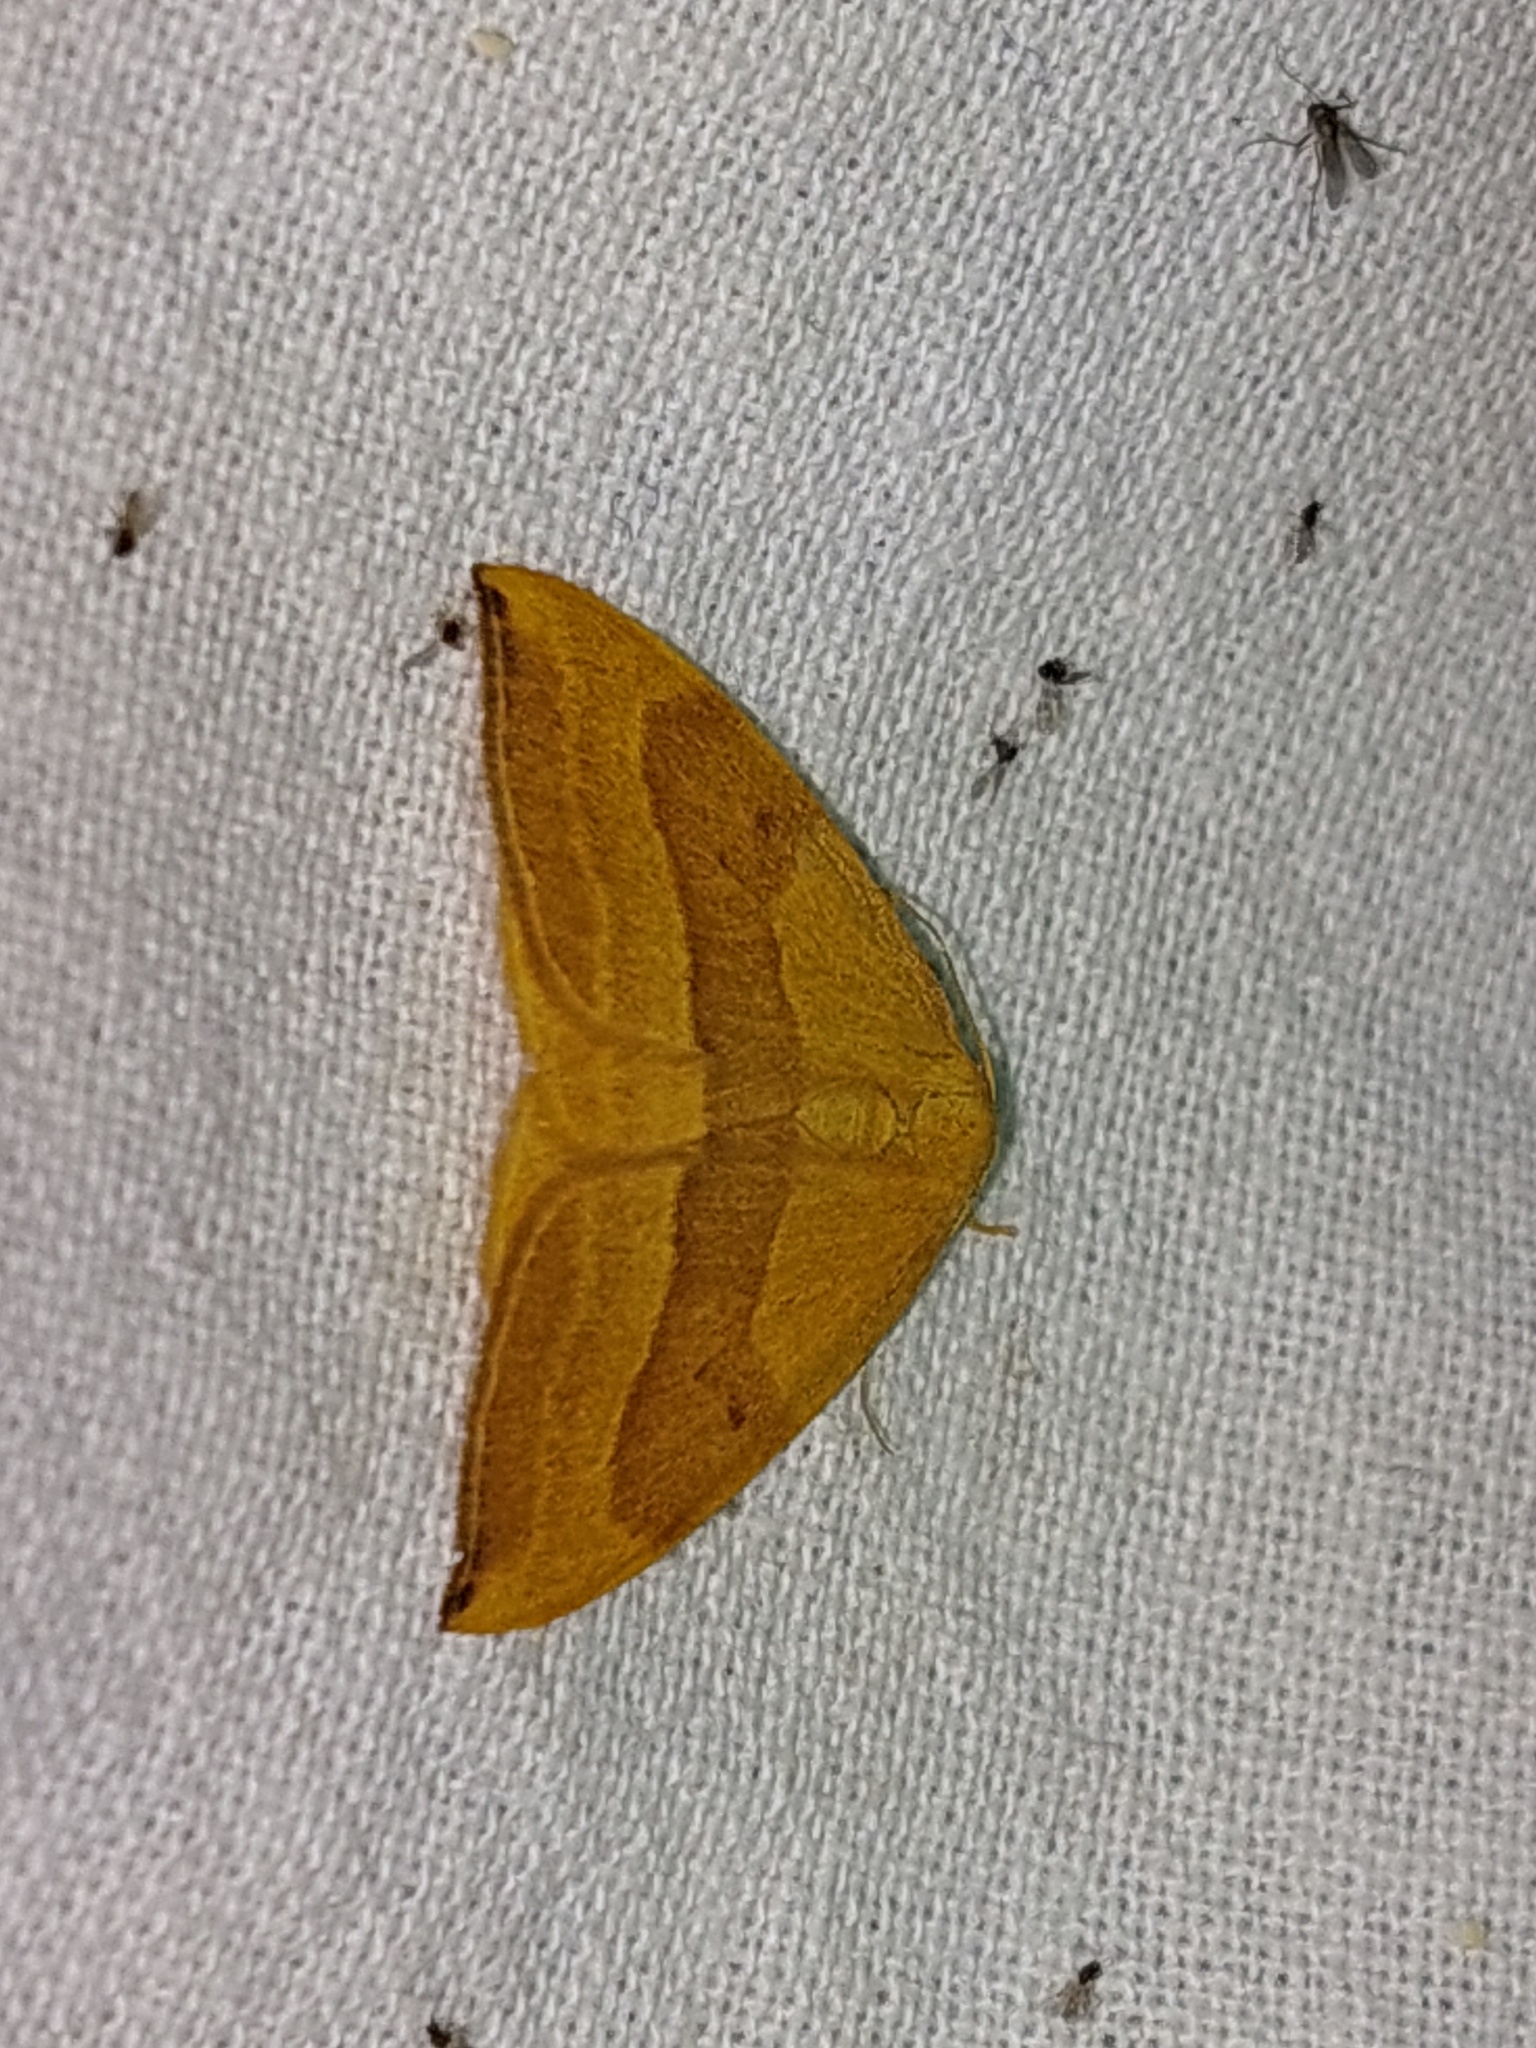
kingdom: Animalia
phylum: Arthropoda
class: Insecta
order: Lepidoptera
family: Drepanidae
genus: Watsonalla
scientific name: Watsonalla cultraria
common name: Barred hook-tip
